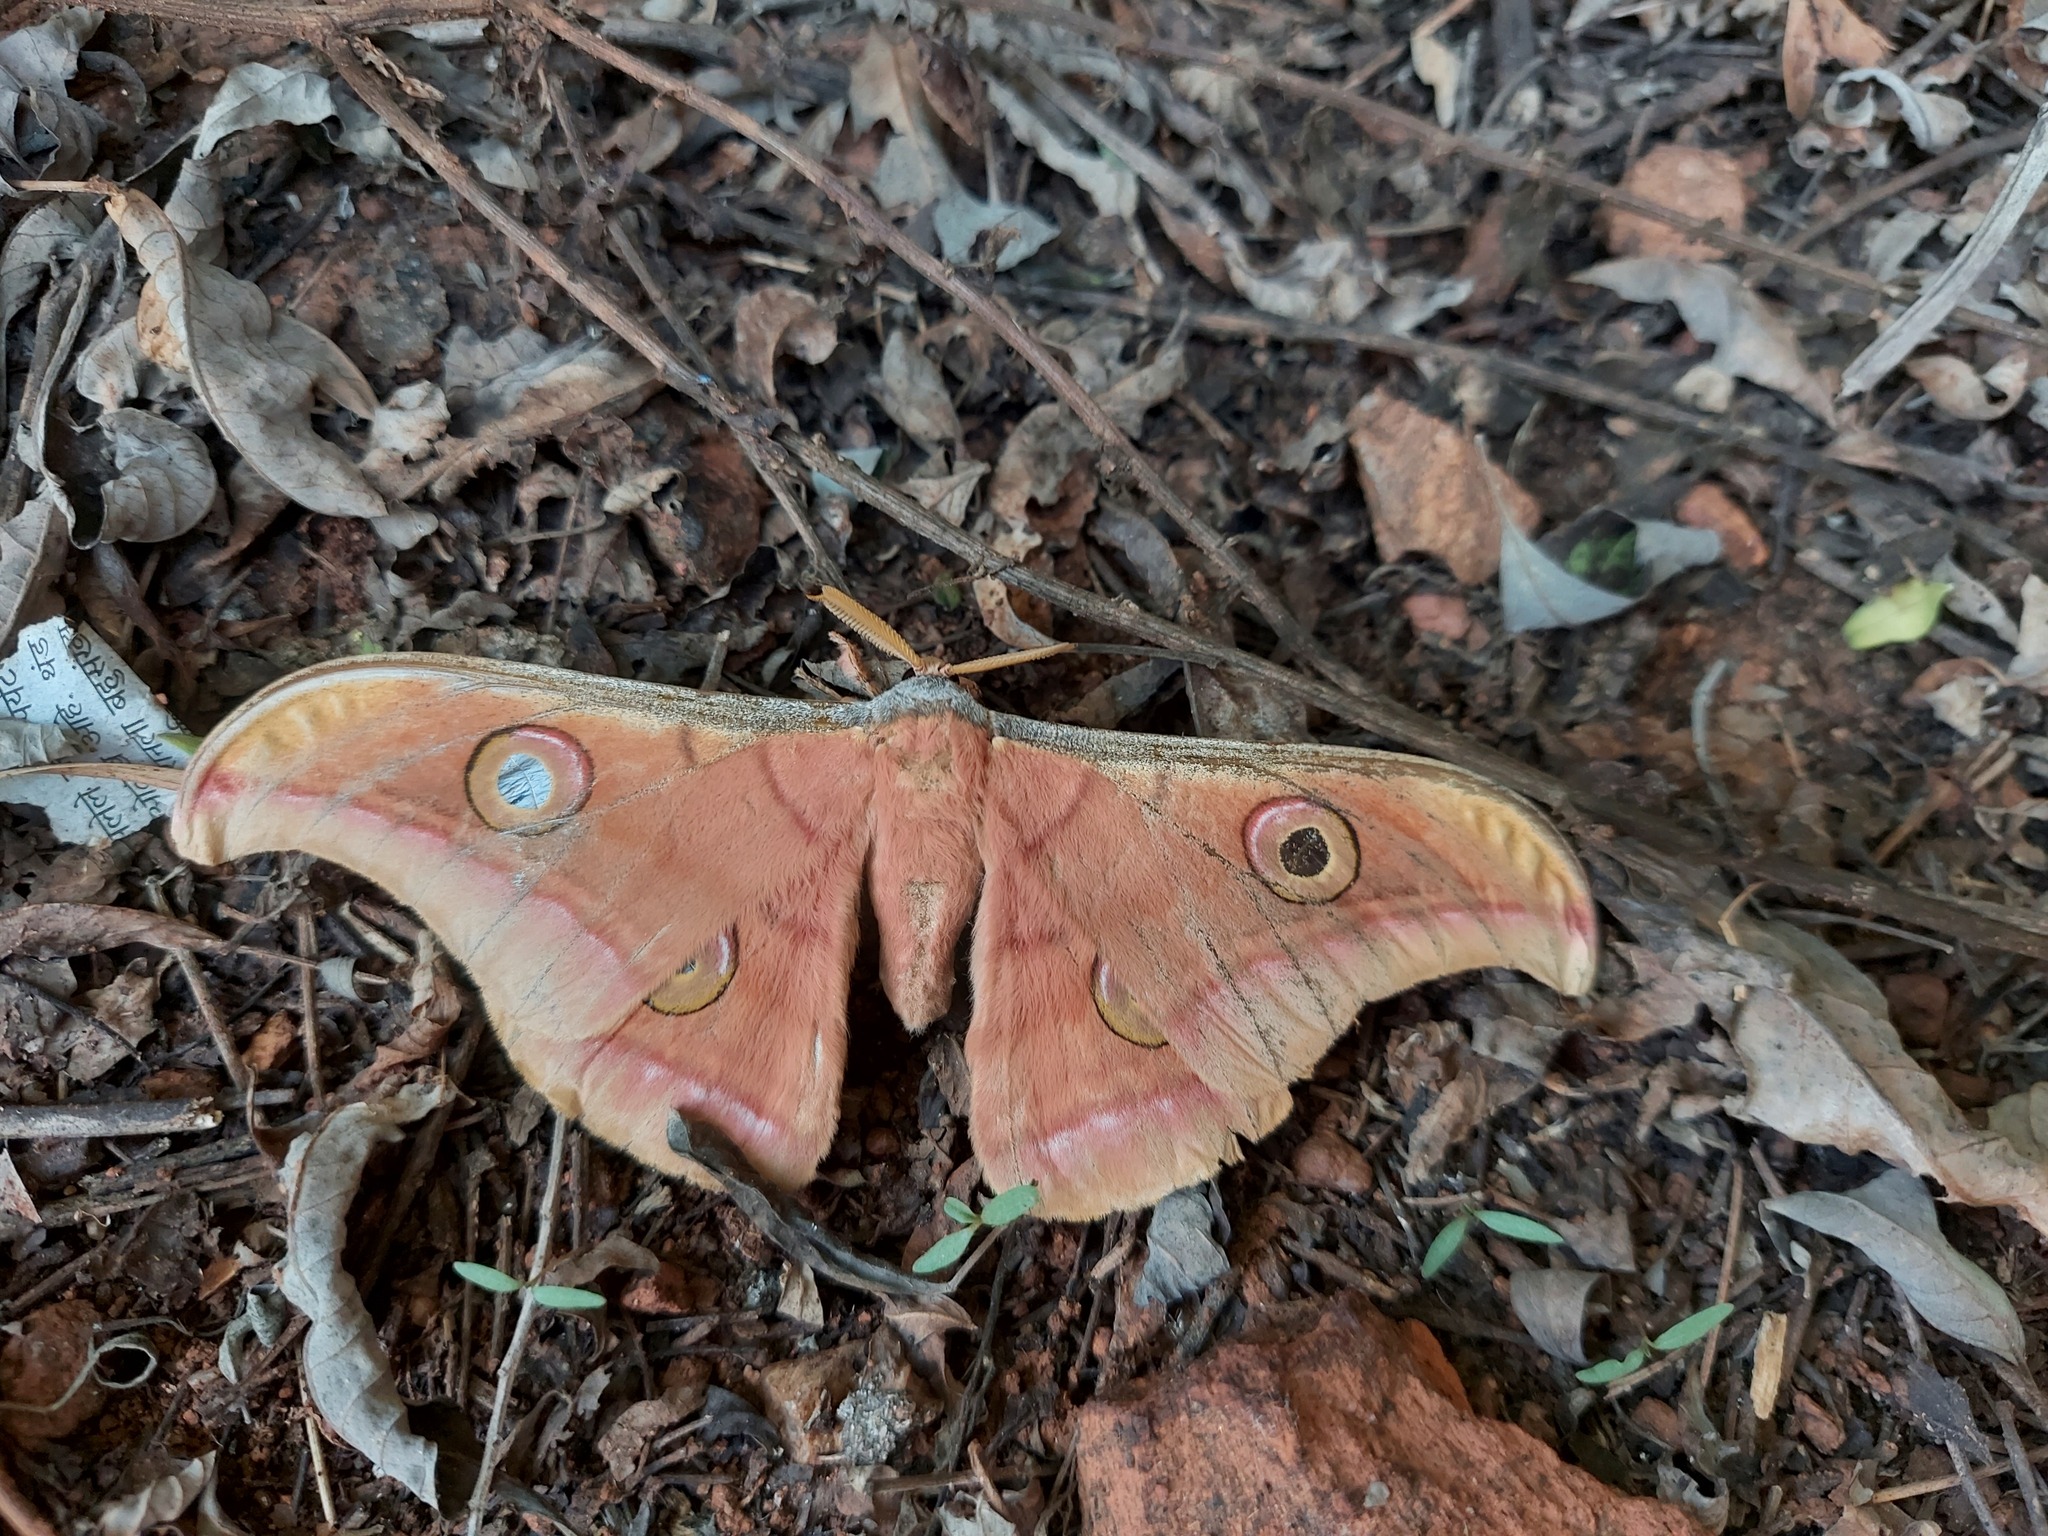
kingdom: Animalia
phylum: Arthropoda
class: Insecta
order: Lepidoptera
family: Saturniidae
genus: Antheraea
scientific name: Antheraea paphia
